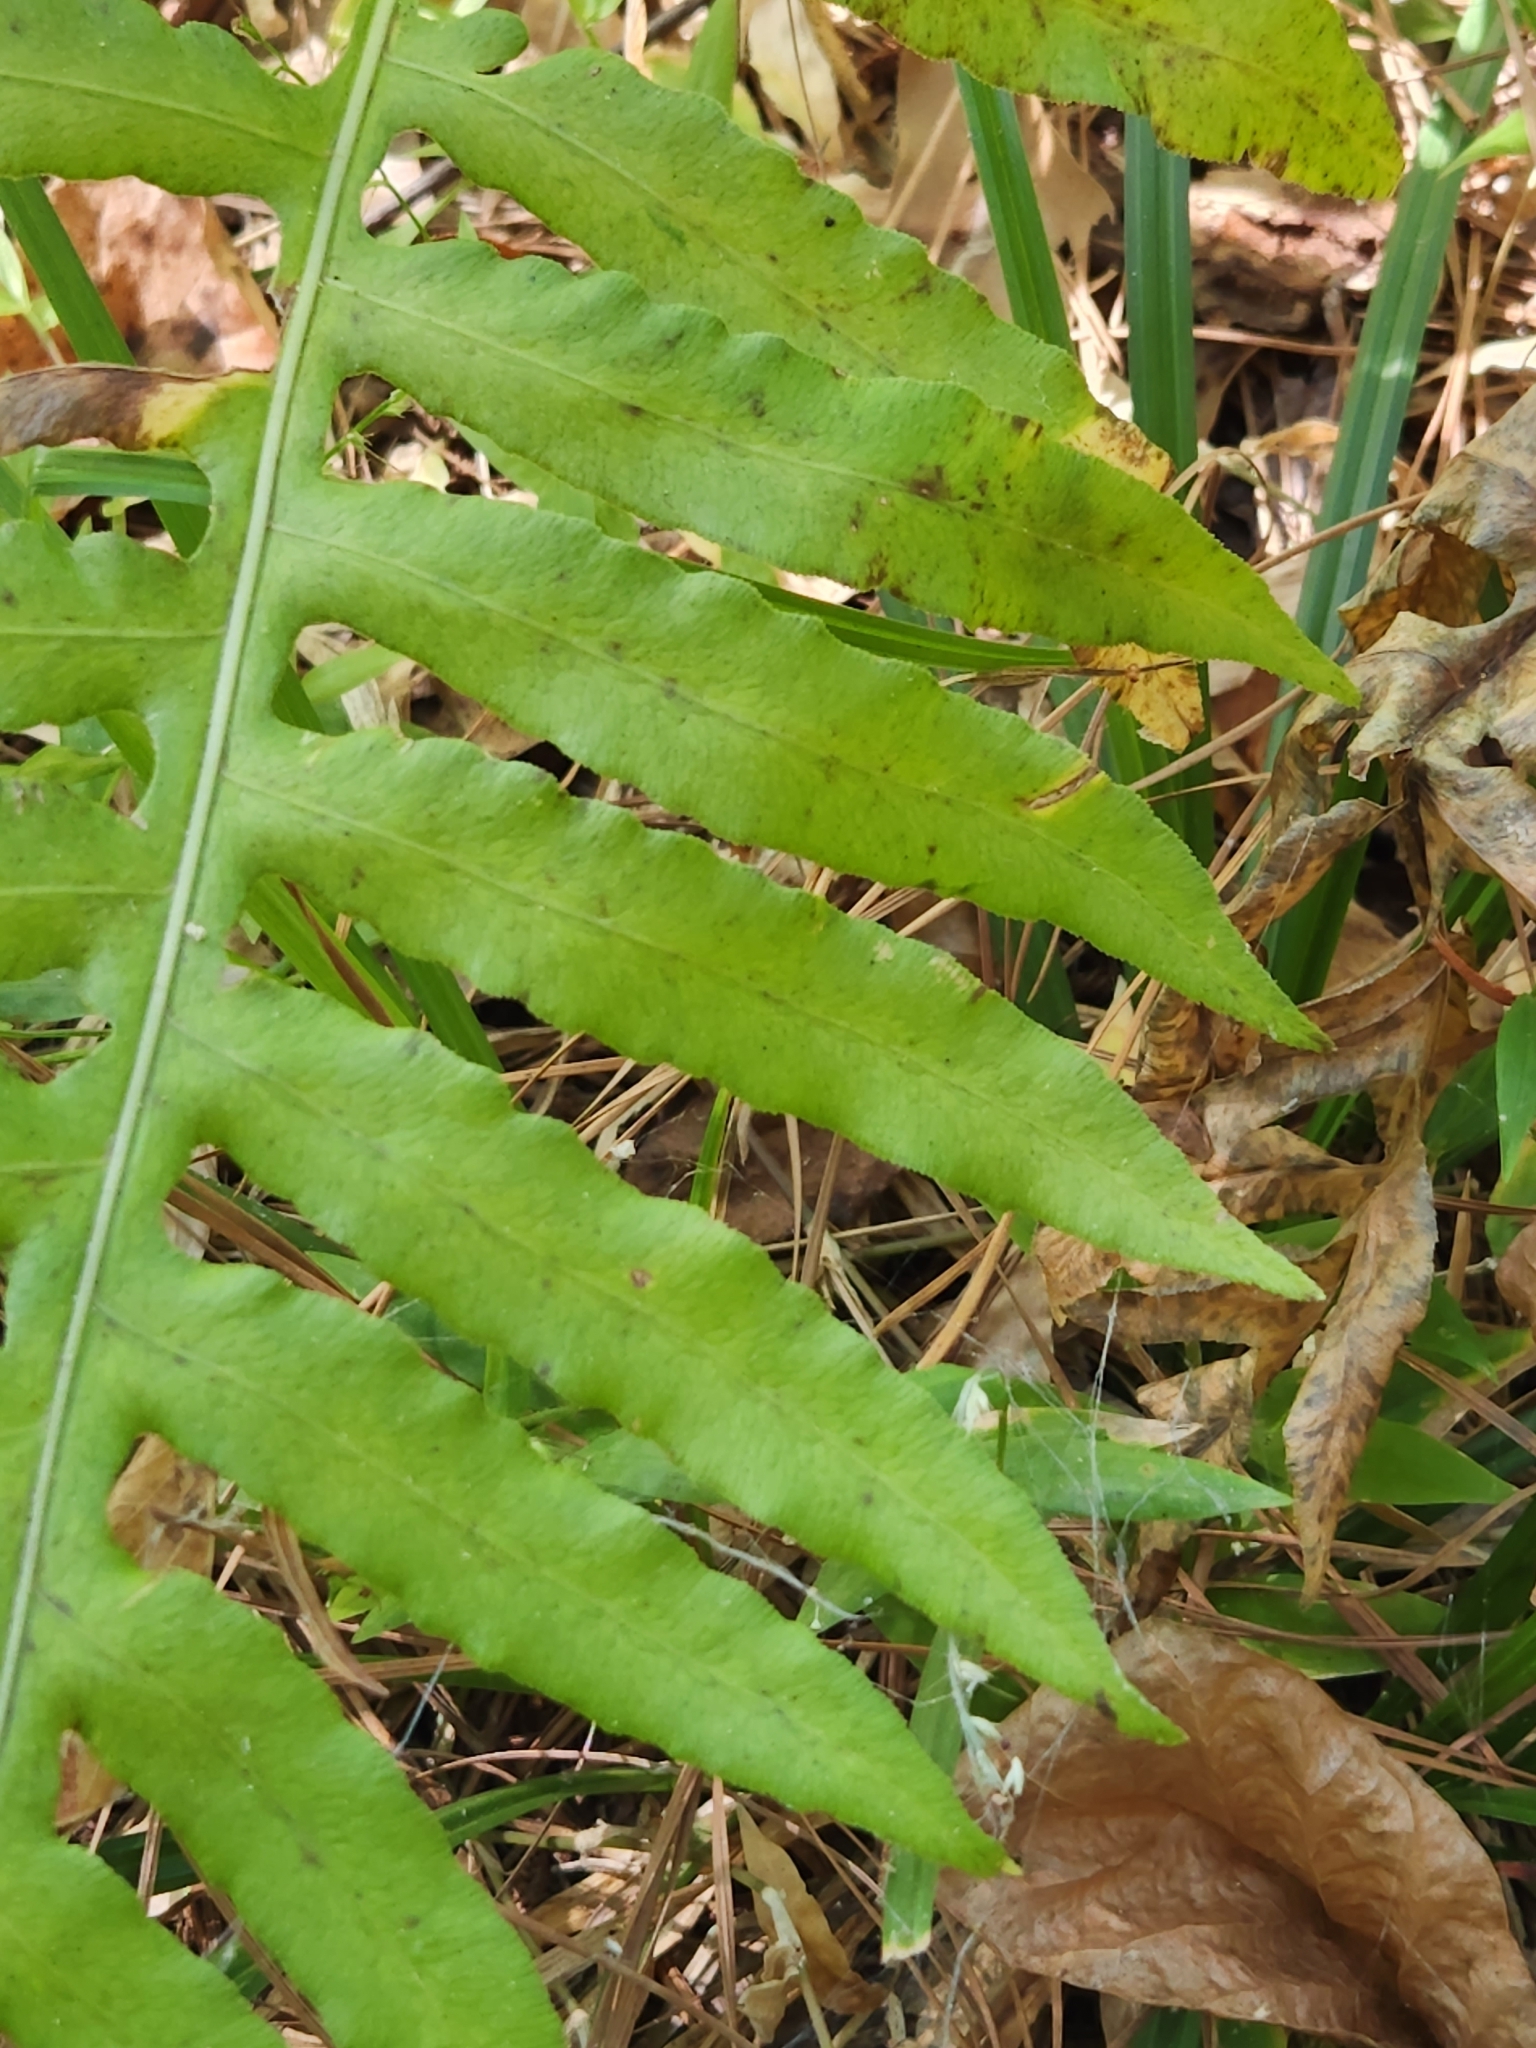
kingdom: Plantae
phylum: Tracheophyta
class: Polypodiopsida
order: Polypodiales
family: Blechnaceae
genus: Lorinseria
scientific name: Lorinseria areolata
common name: Dwarf chain fern
